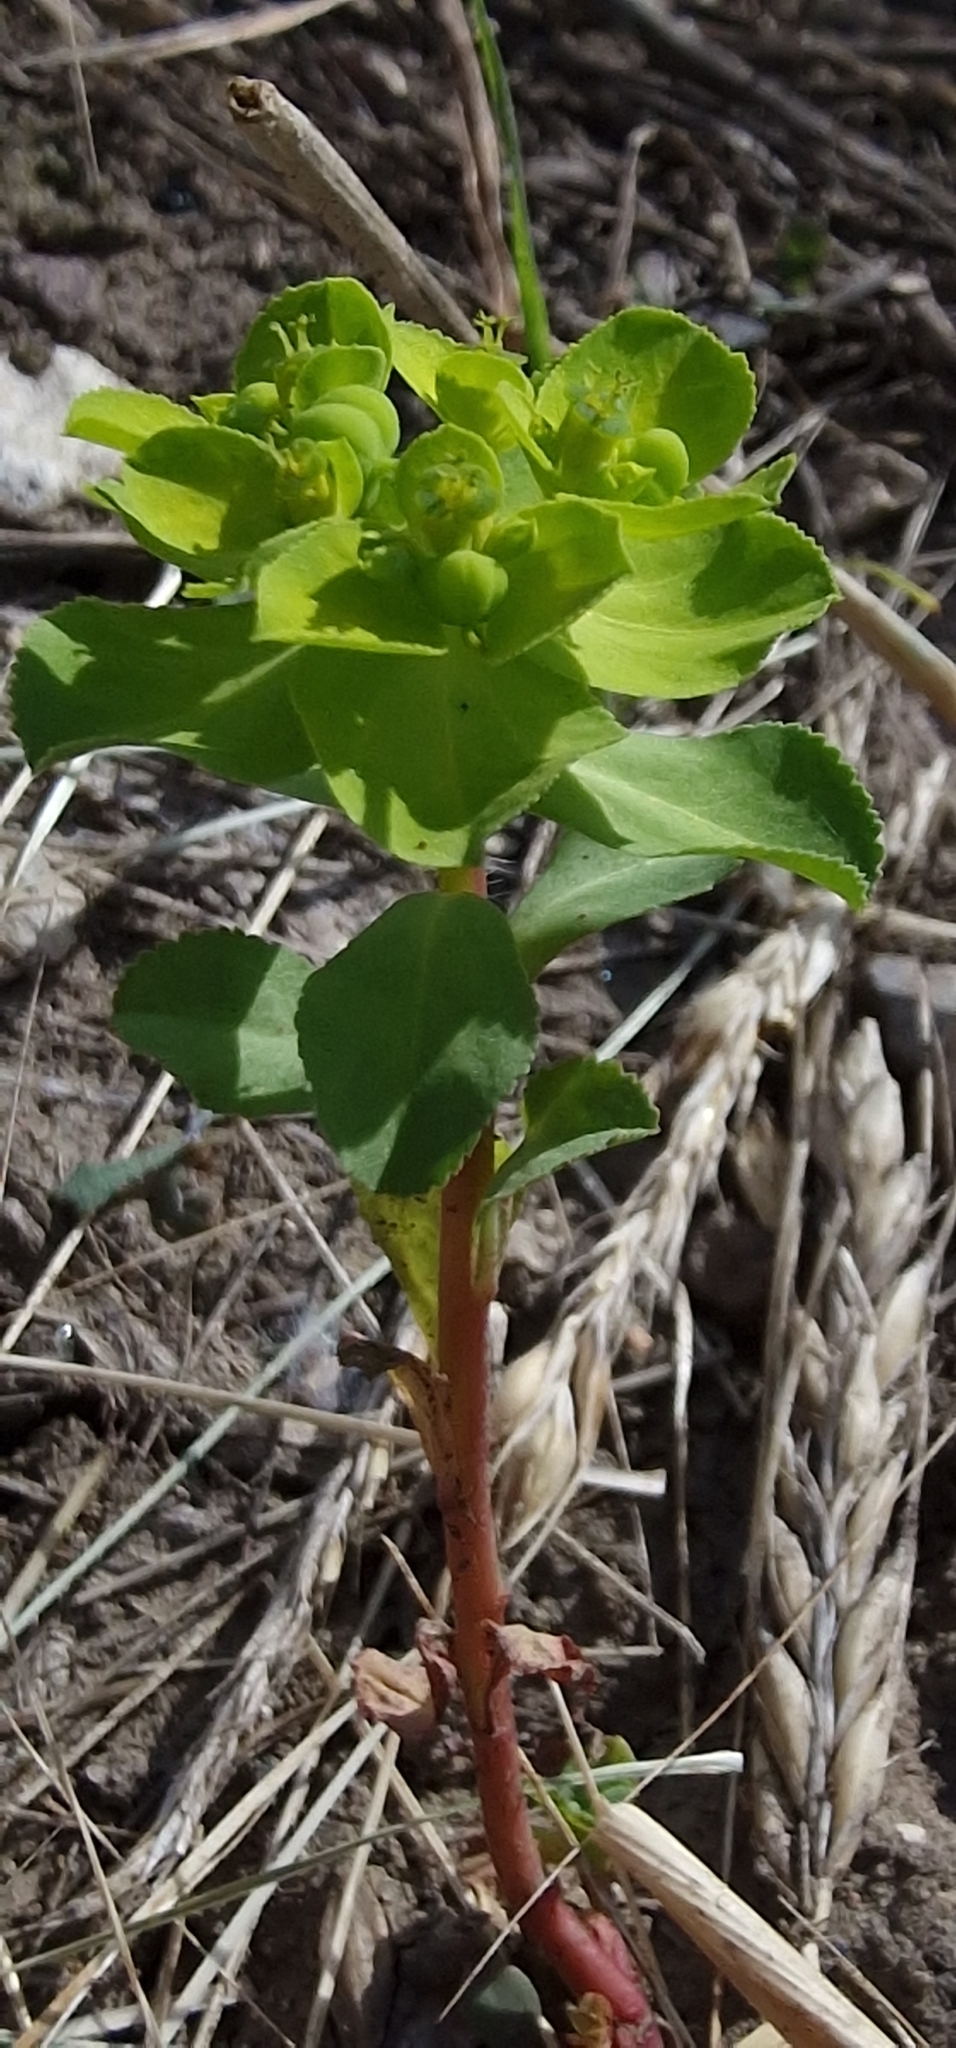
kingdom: Plantae
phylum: Tracheophyta
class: Magnoliopsida
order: Malpighiales
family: Euphorbiaceae
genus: Euphorbia
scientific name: Euphorbia helioscopia
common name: Sun spurge
